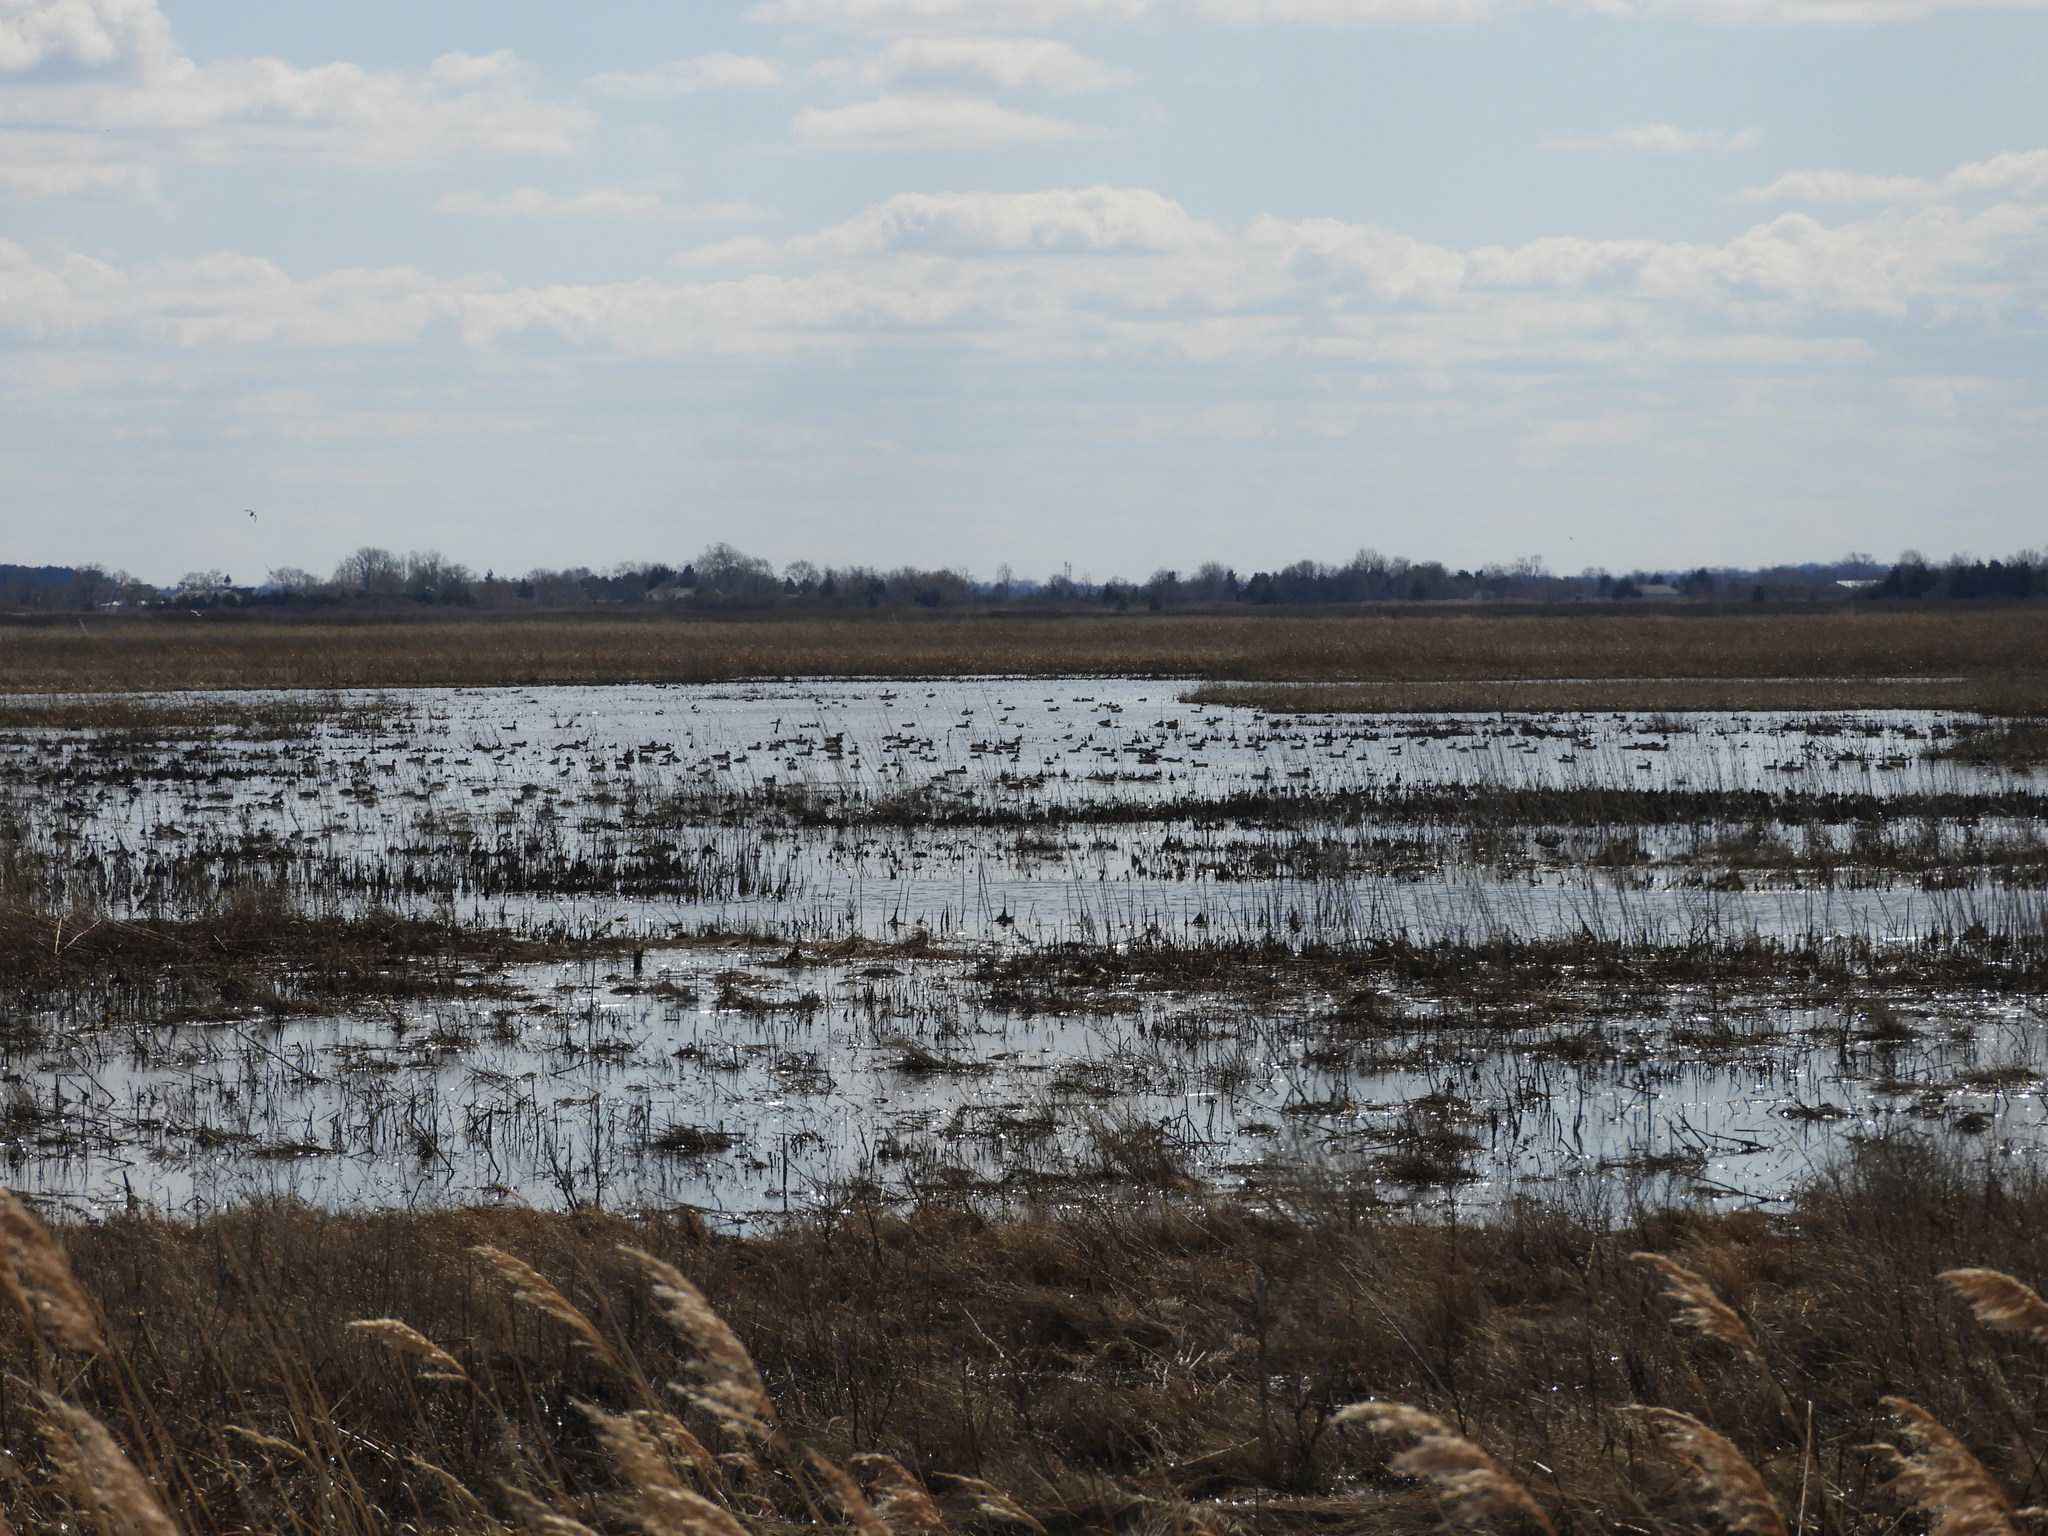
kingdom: Animalia
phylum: Chordata
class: Aves
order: Anseriformes
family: Anatidae
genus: Mareca
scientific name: Mareca americana
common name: American wigeon
